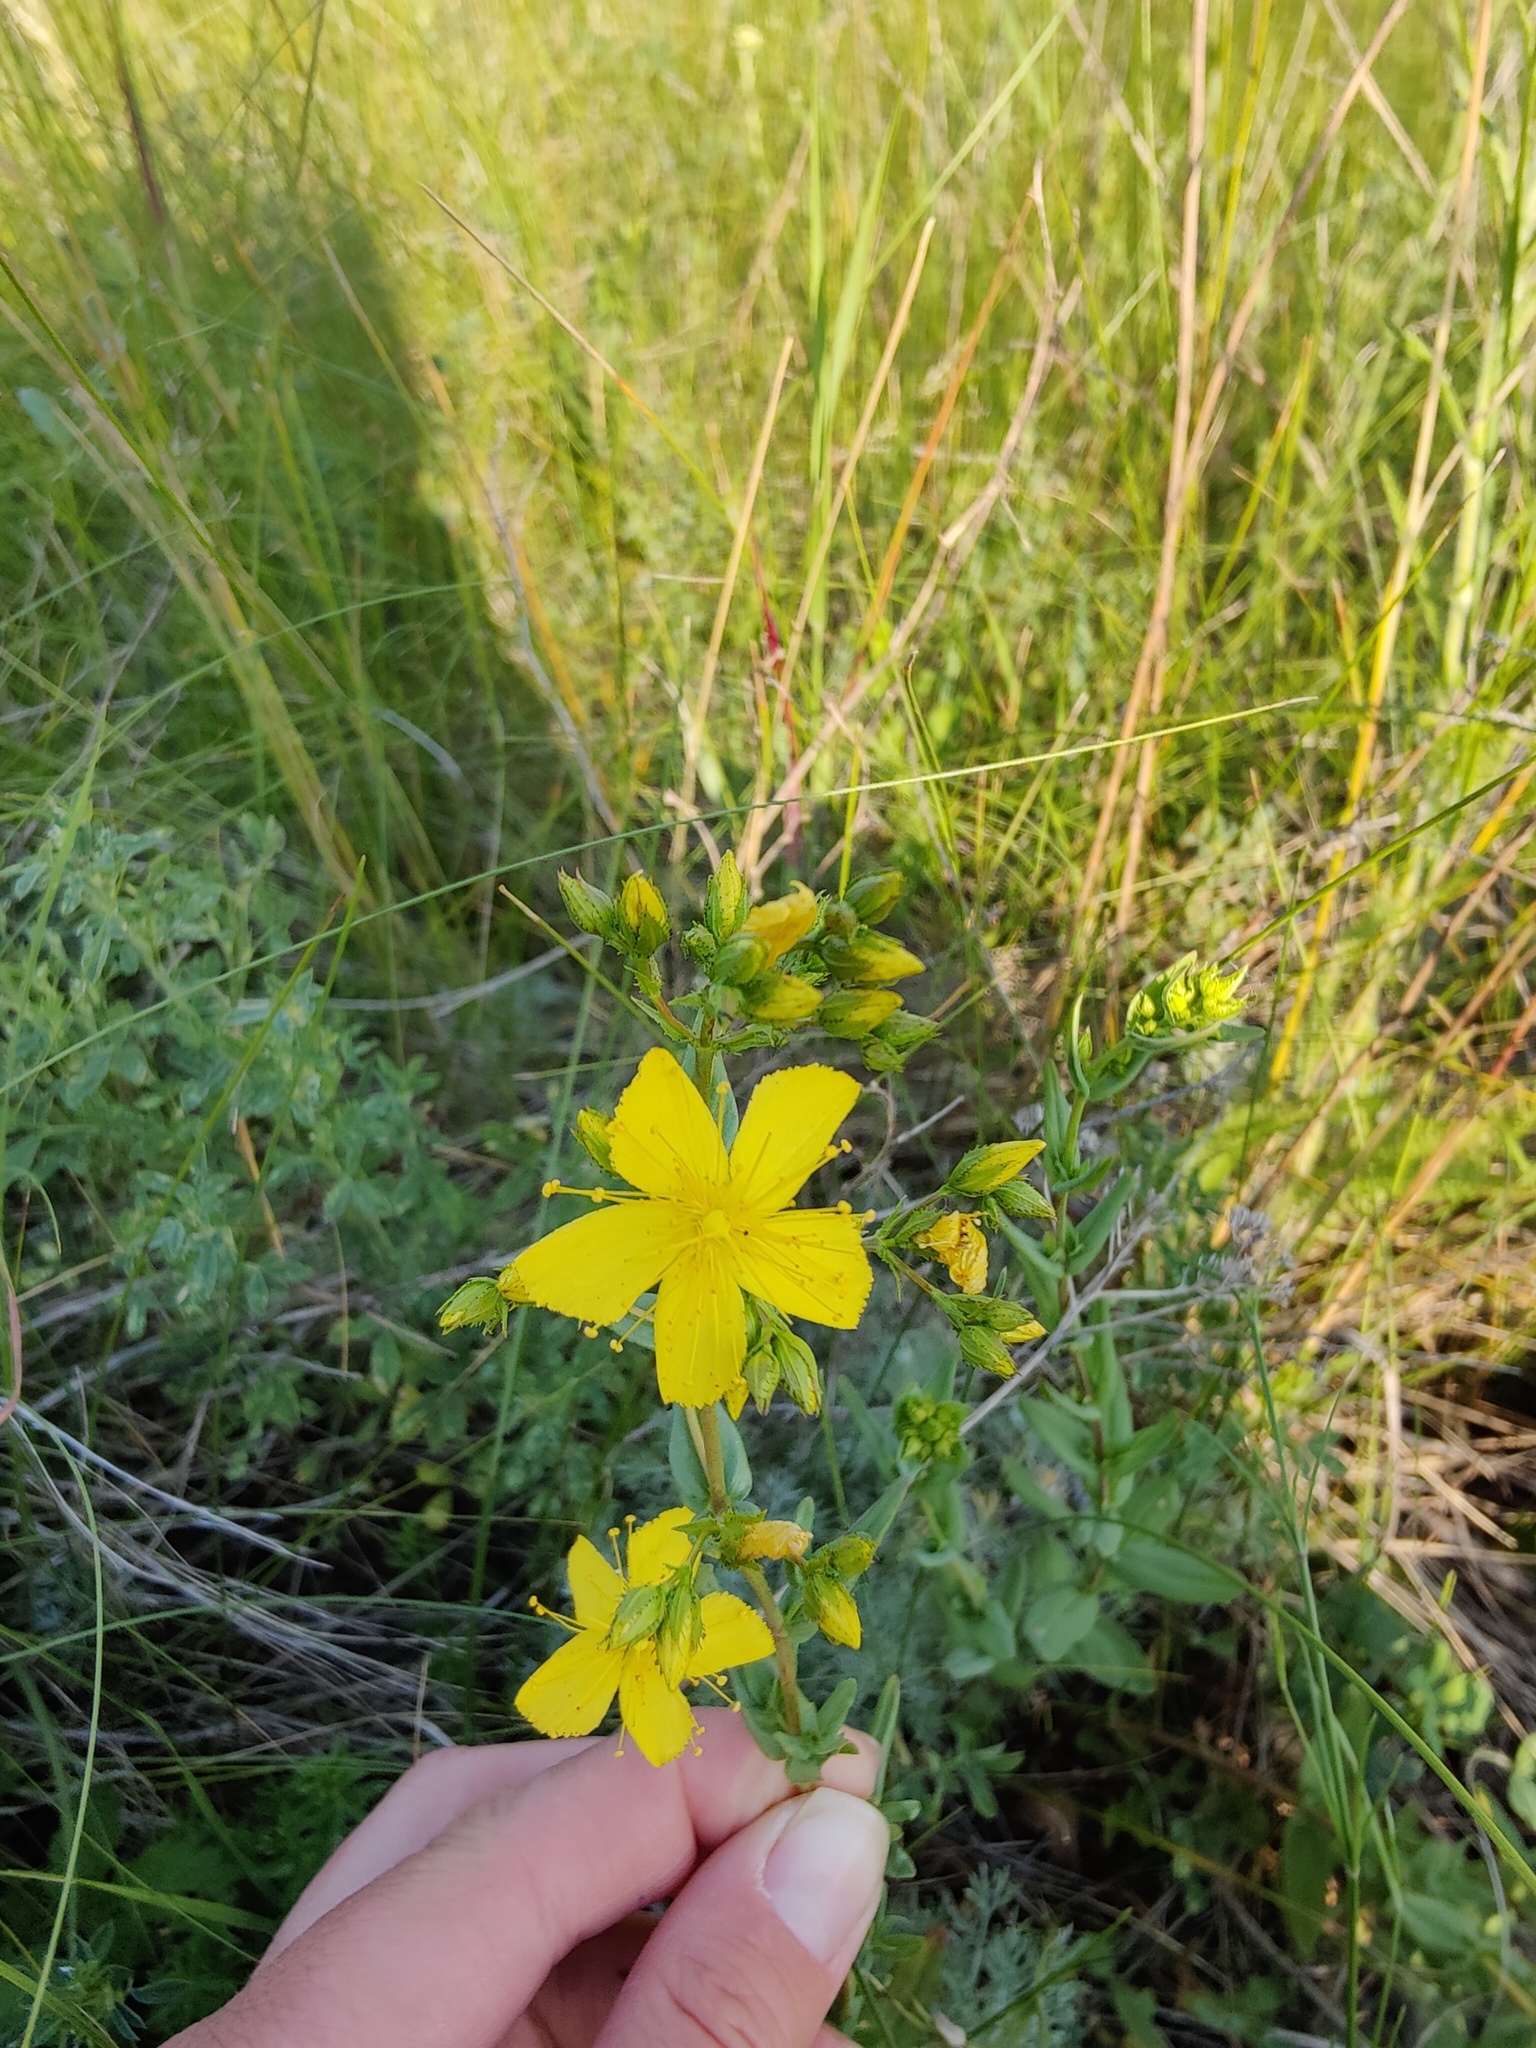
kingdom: Plantae
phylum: Tracheophyta
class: Magnoliopsida
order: Malpighiales
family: Hypericaceae
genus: Hypericum
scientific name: Hypericum elegans
